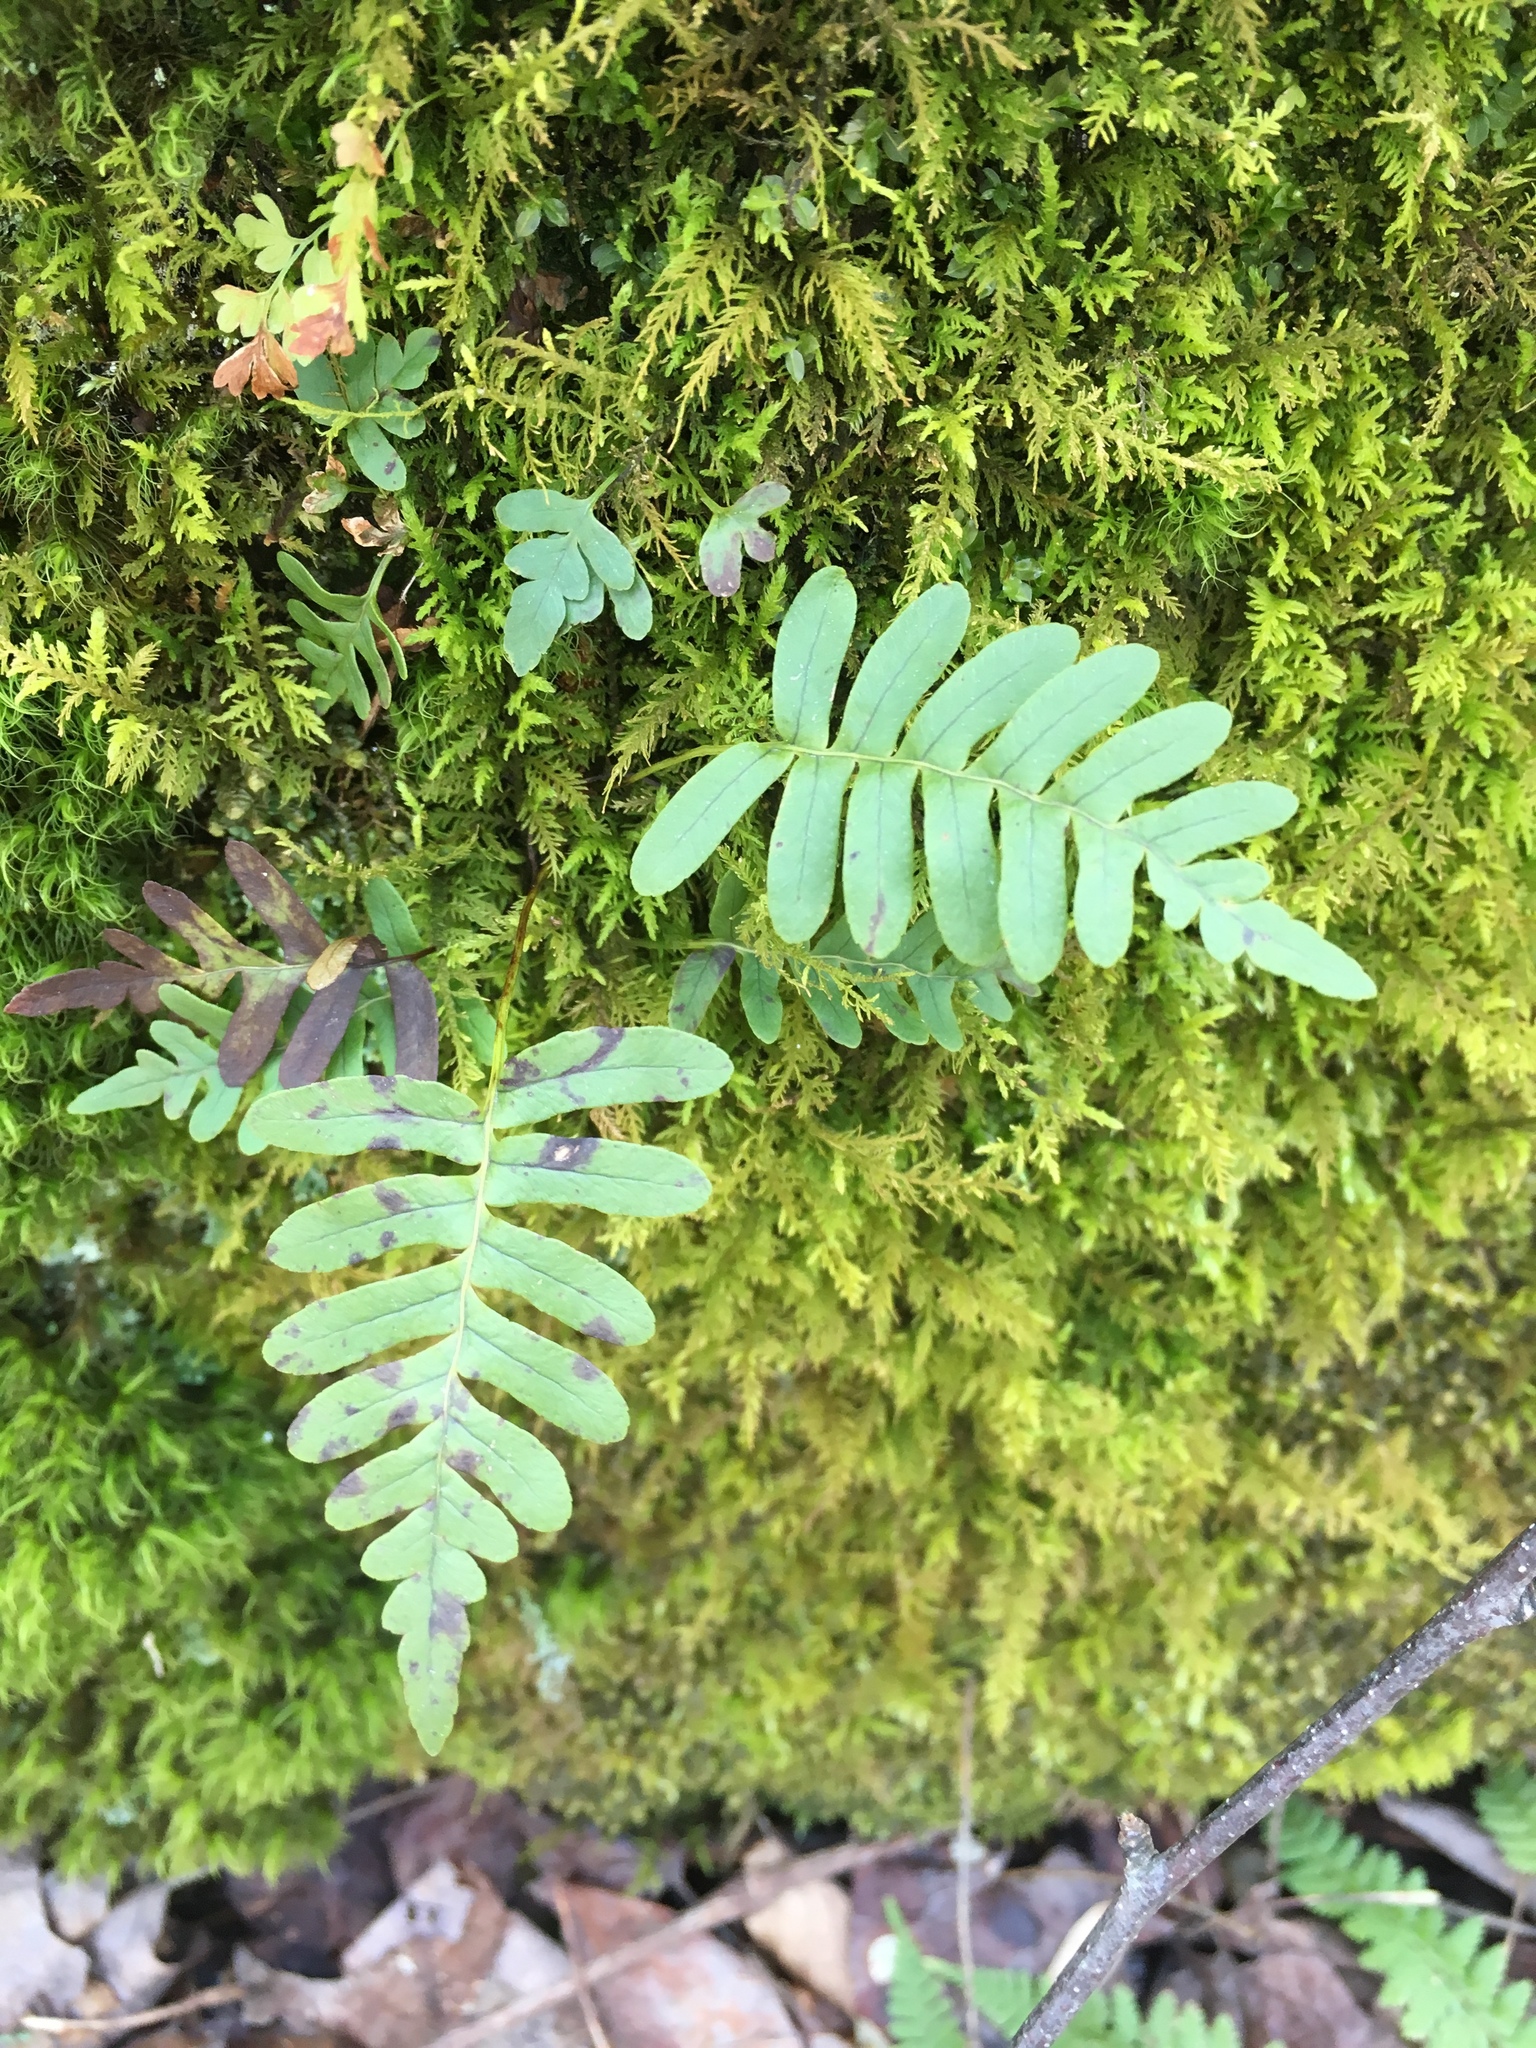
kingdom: Plantae
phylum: Tracheophyta
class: Polypodiopsida
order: Polypodiales
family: Polypodiaceae
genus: Polypodium
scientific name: Polypodium appalachianum
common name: Appalachian polypody
